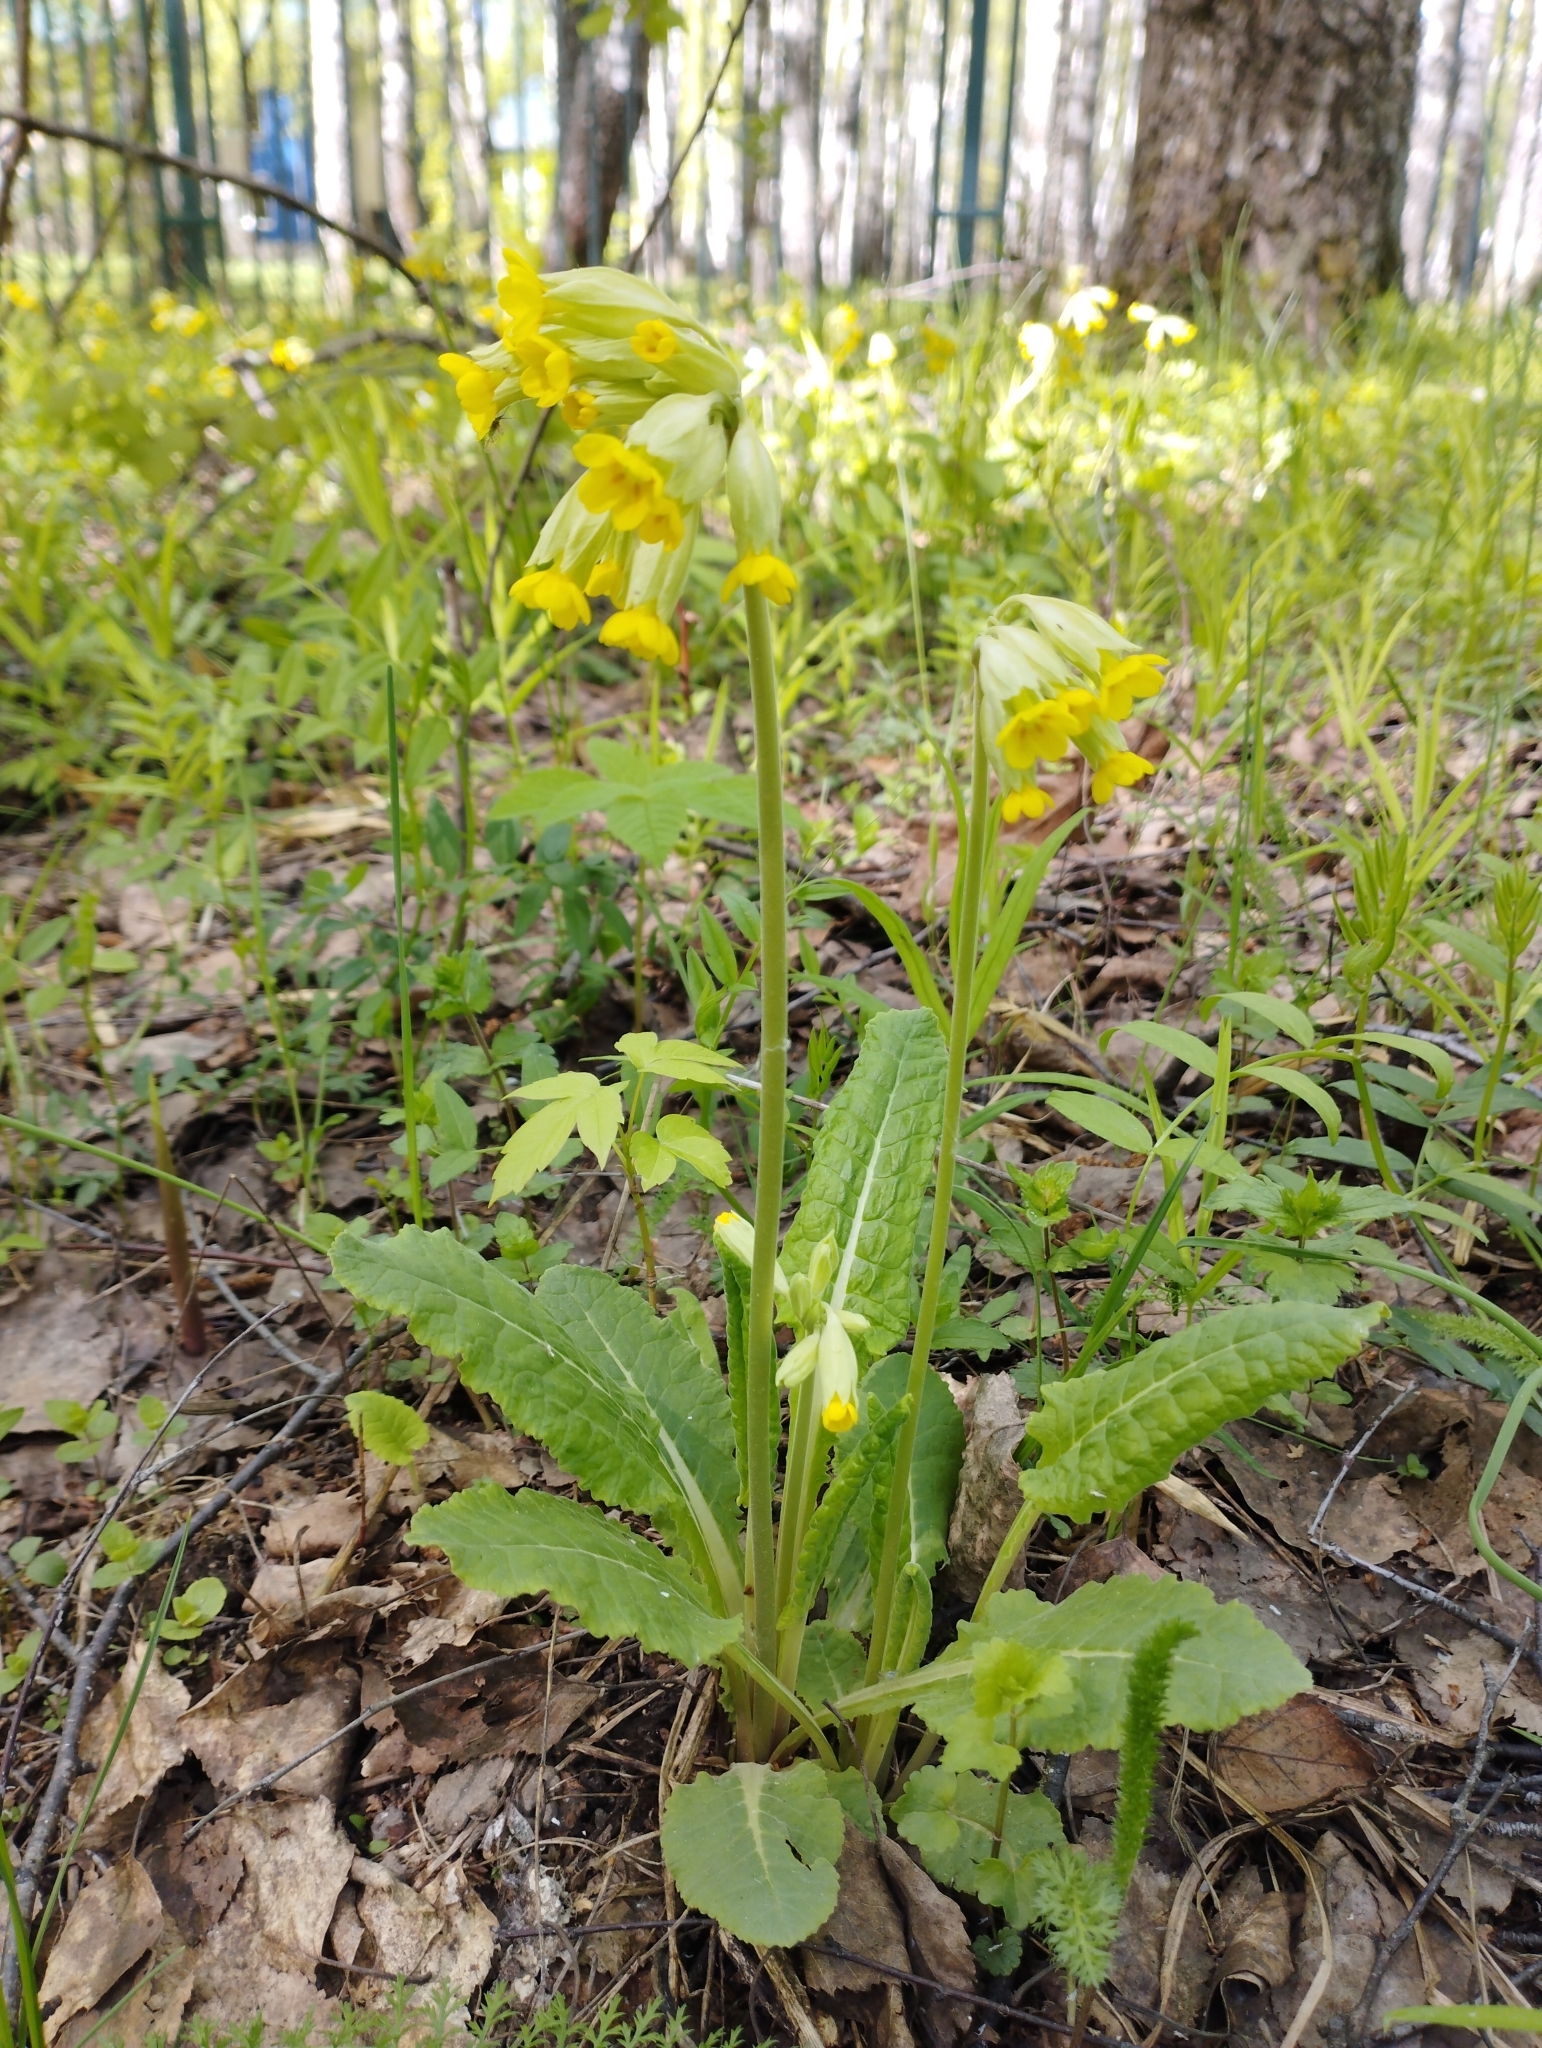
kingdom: Plantae
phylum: Tracheophyta
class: Magnoliopsida
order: Ericales
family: Primulaceae
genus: Primula
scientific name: Primula veris
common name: Cowslip
